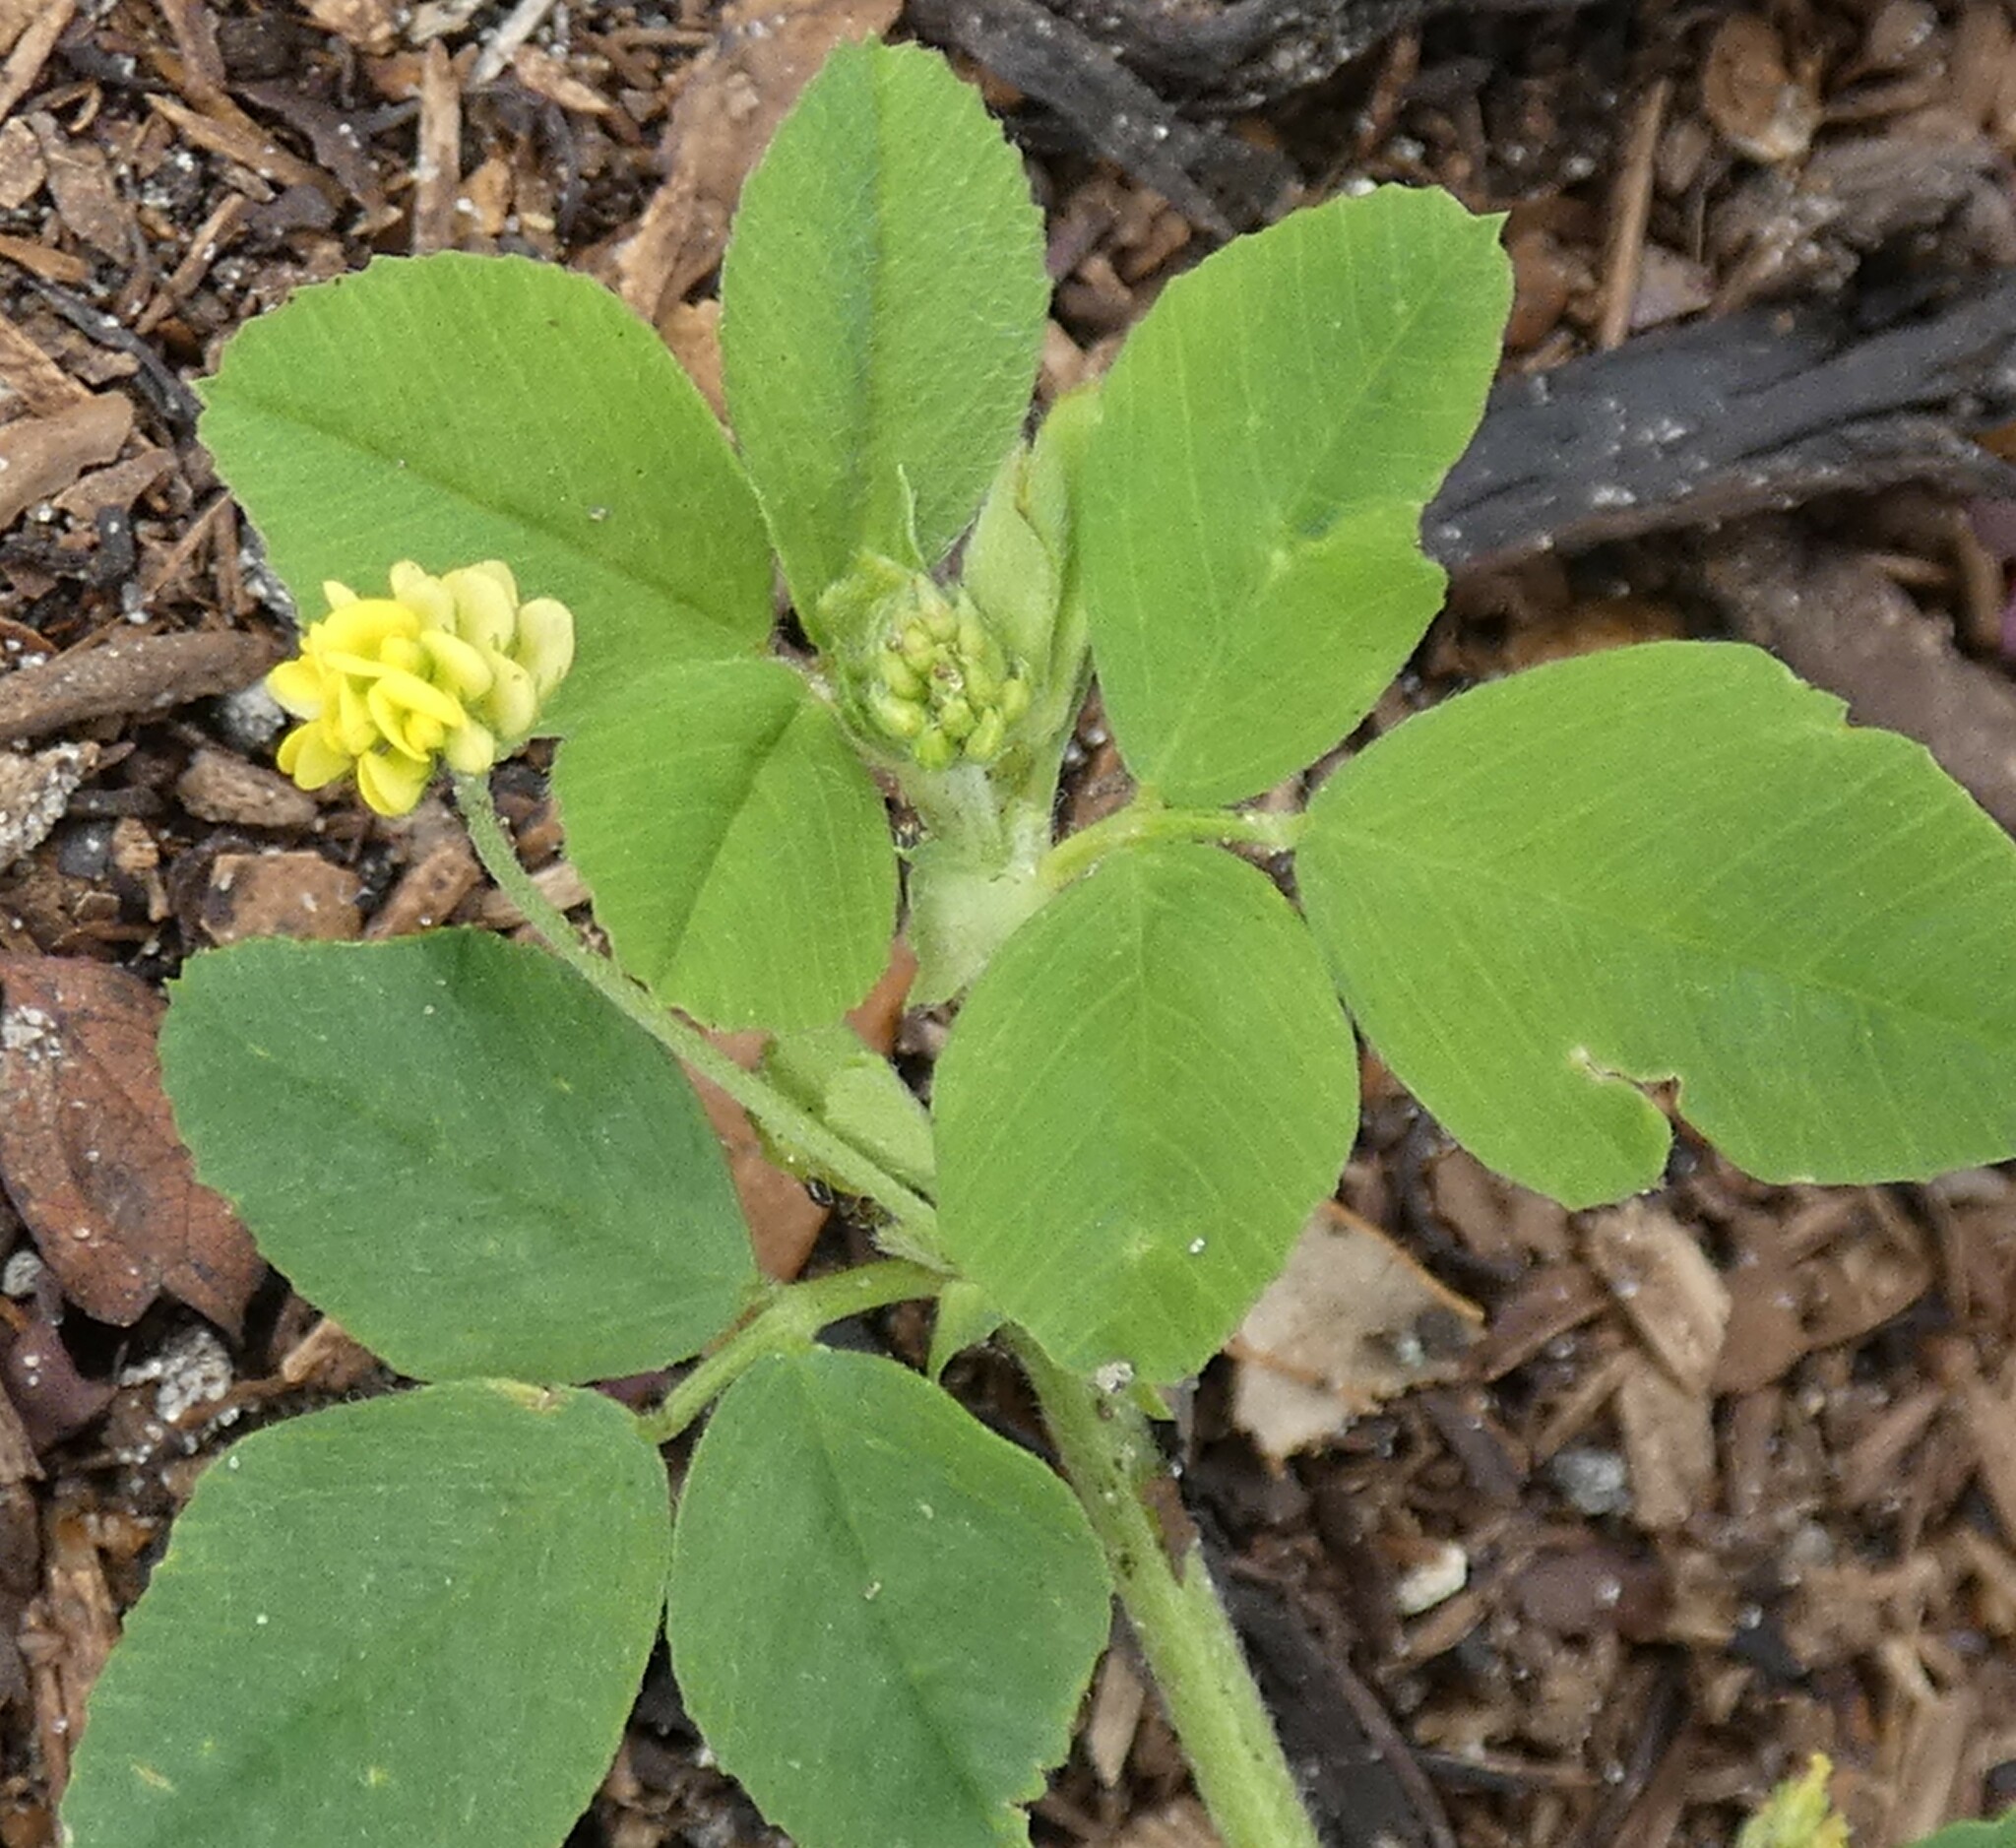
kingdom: Plantae
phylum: Tracheophyta
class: Magnoliopsida
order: Fabales
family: Fabaceae
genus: Medicago
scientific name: Medicago lupulina
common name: Black medick
